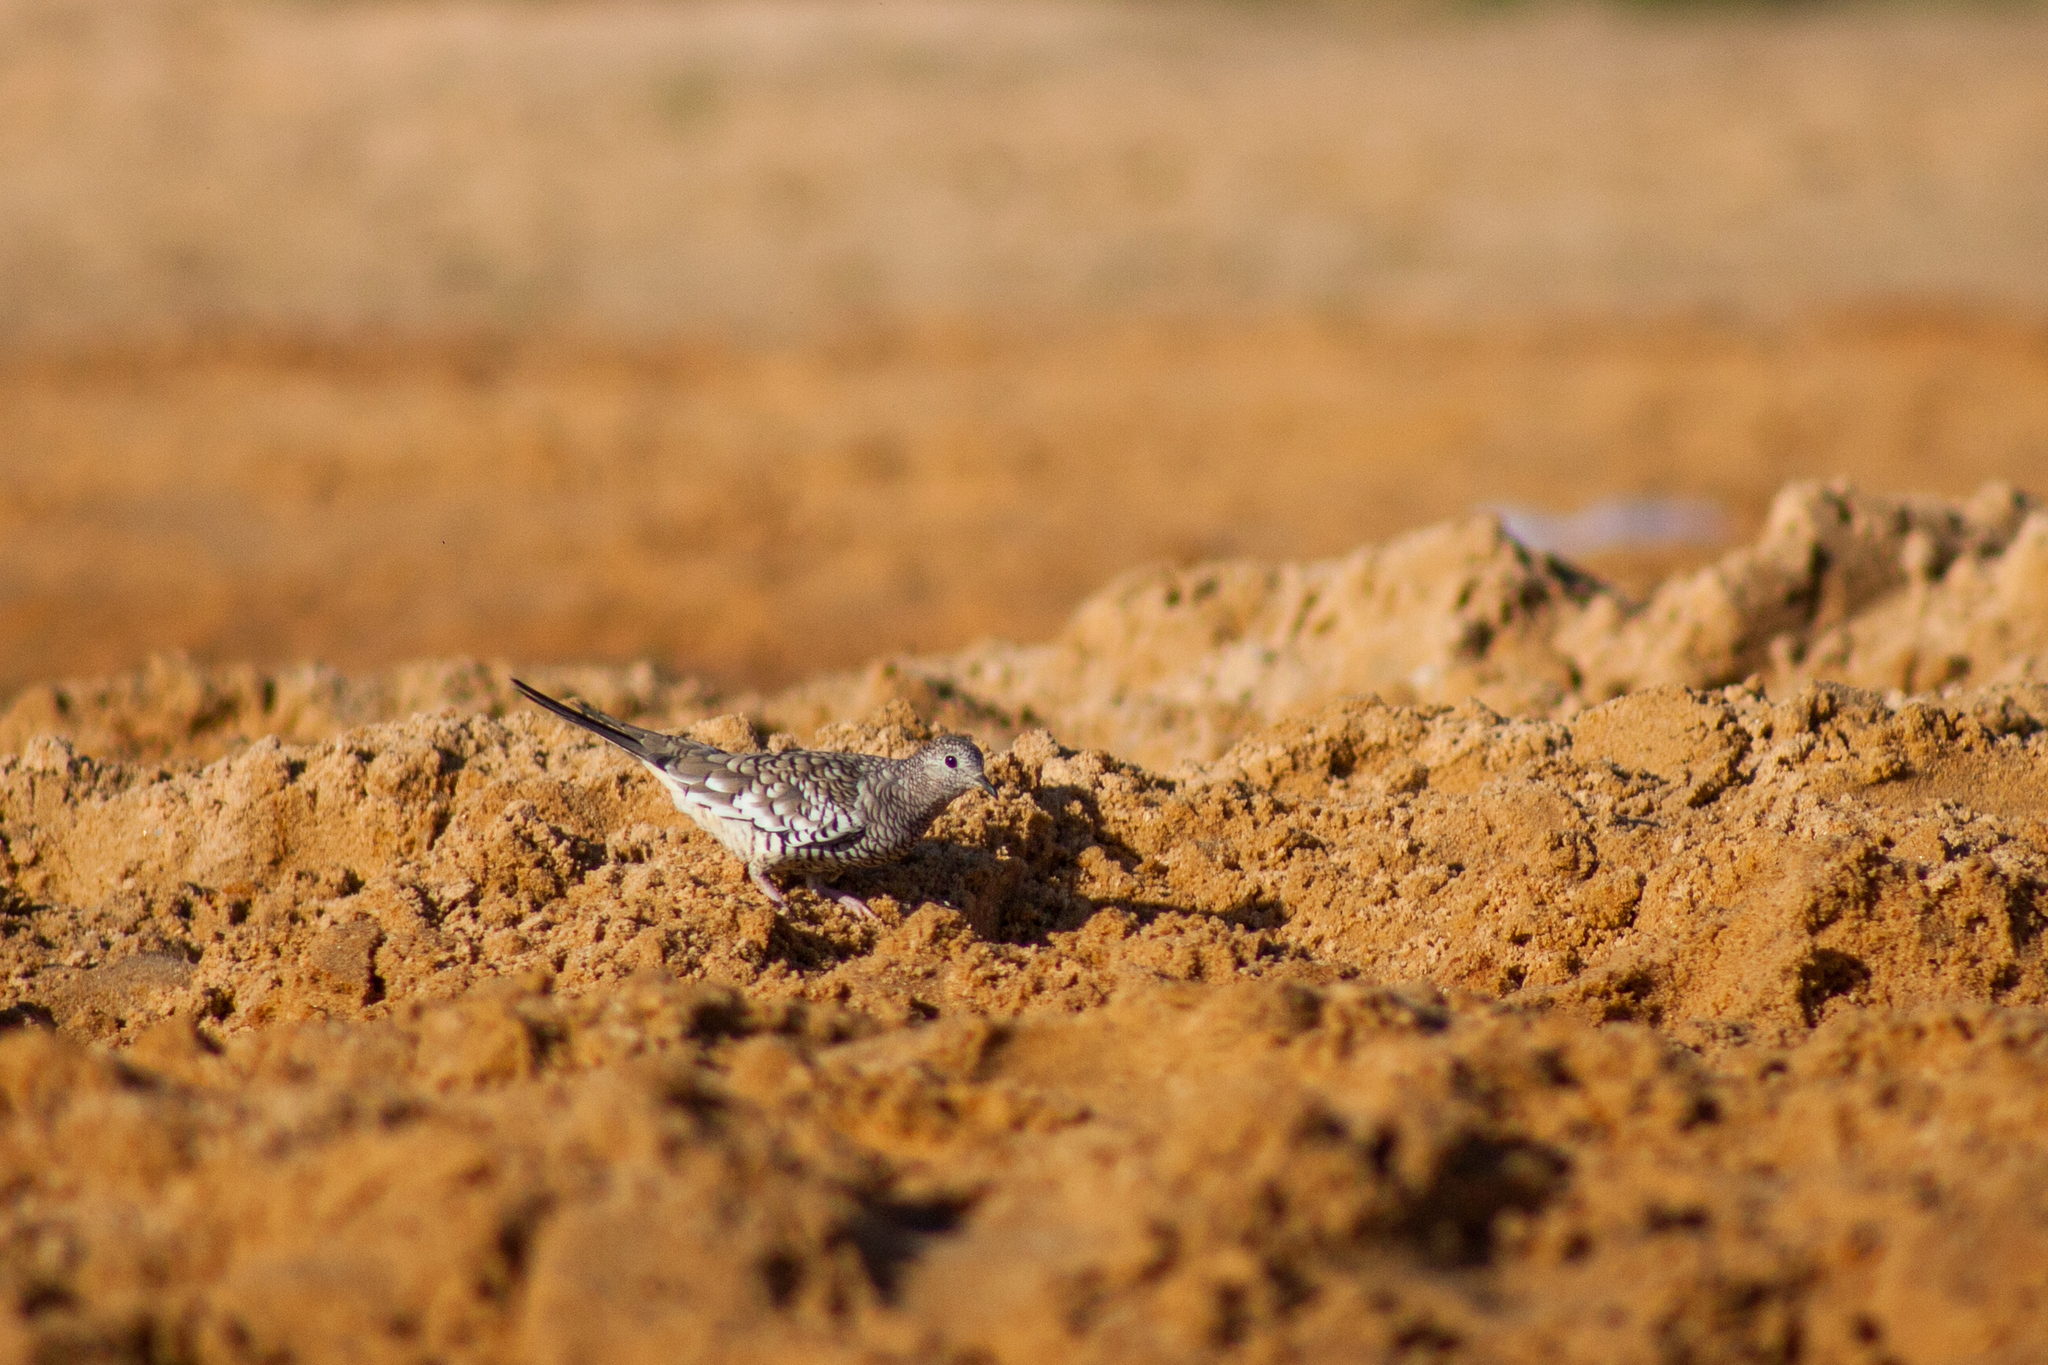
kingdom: Animalia
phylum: Chordata
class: Aves
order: Columbiformes
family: Columbidae
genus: Columbina
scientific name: Columbina squammata
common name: Scaled dove
